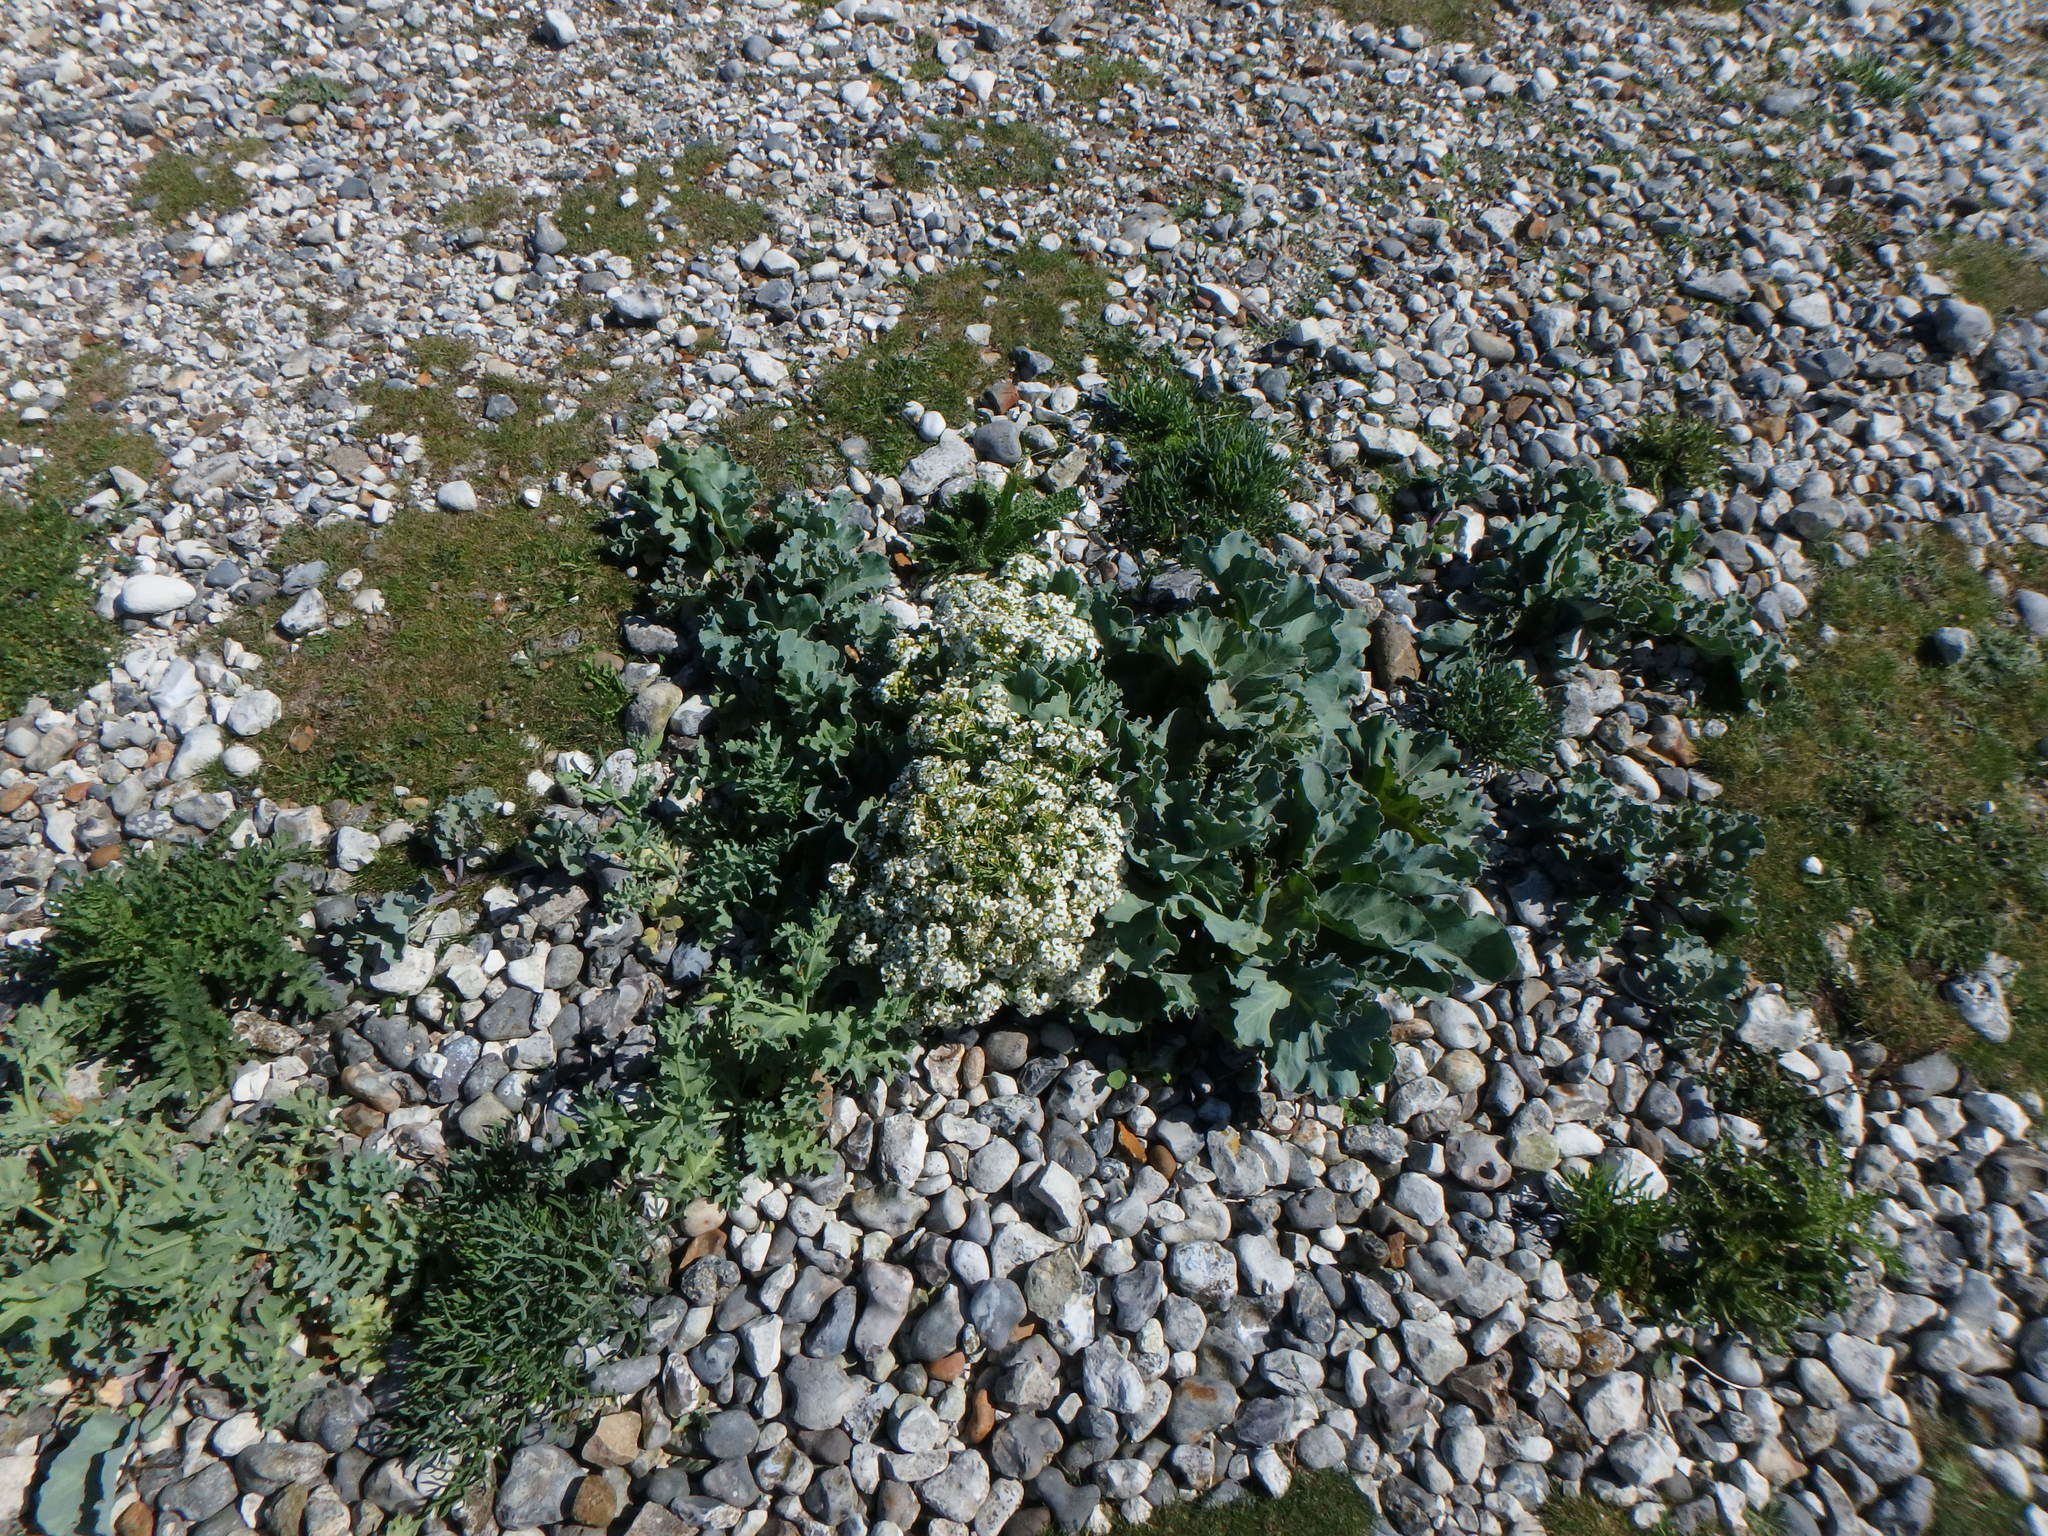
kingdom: Plantae
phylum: Tracheophyta
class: Magnoliopsida
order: Brassicales
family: Brassicaceae
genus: Crambe
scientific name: Crambe maritima
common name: Sea-kale
